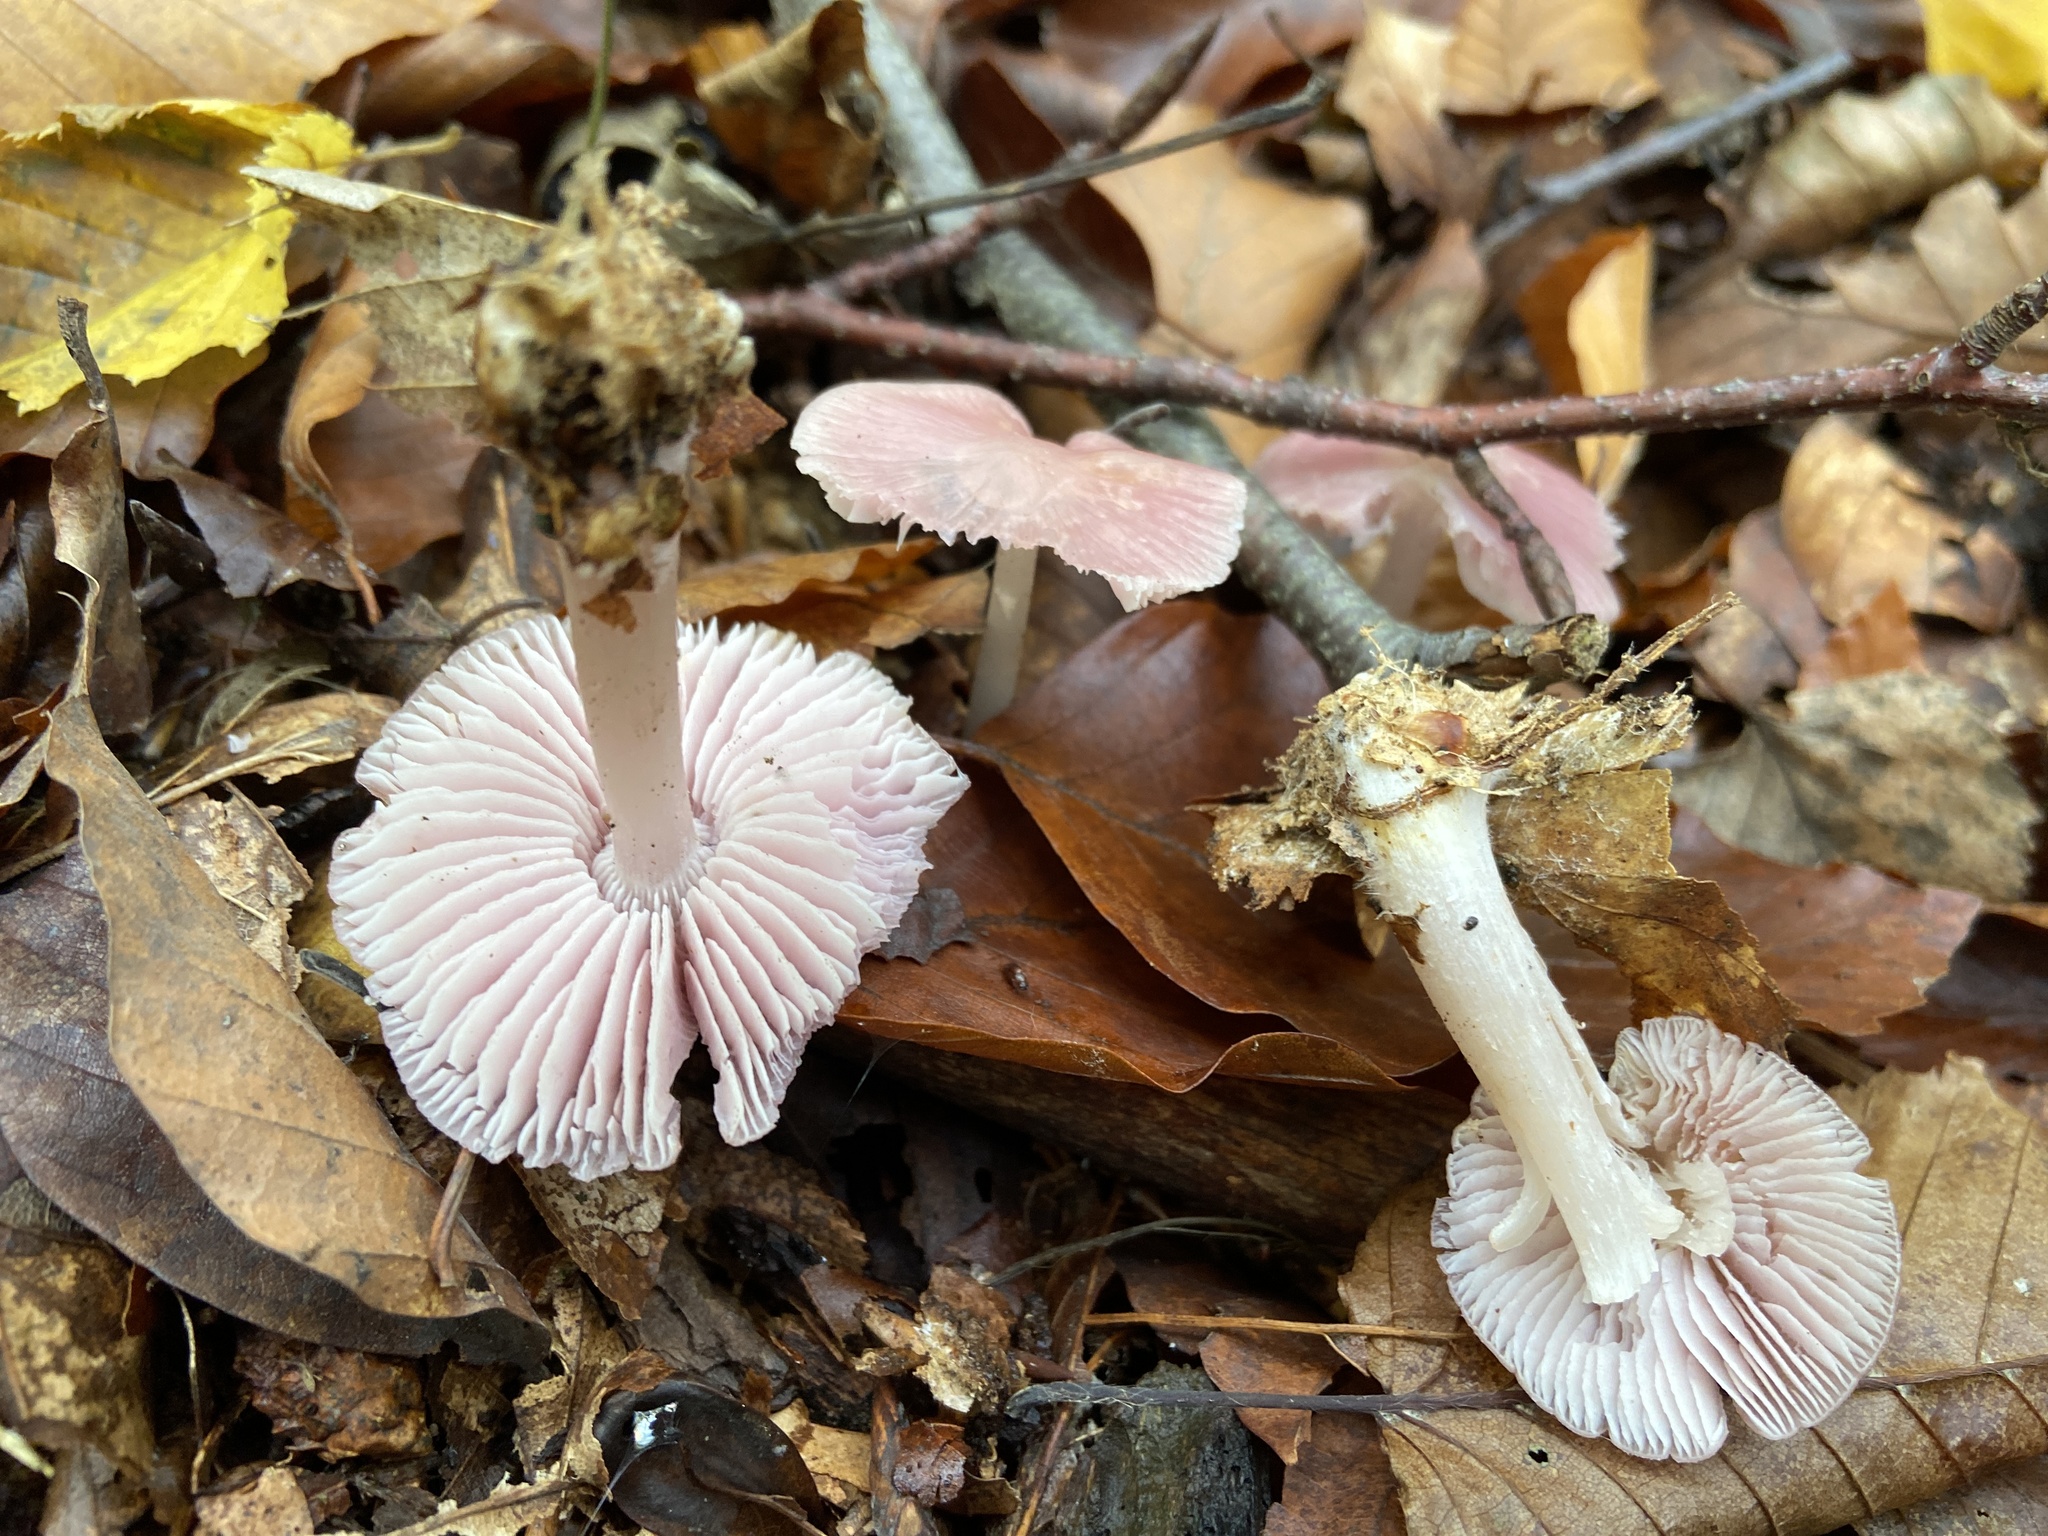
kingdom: Fungi
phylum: Basidiomycota
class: Agaricomycetes
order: Agaricales
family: Mycenaceae
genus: Mycena
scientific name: Mycena rosea
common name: Rosy bonnet
